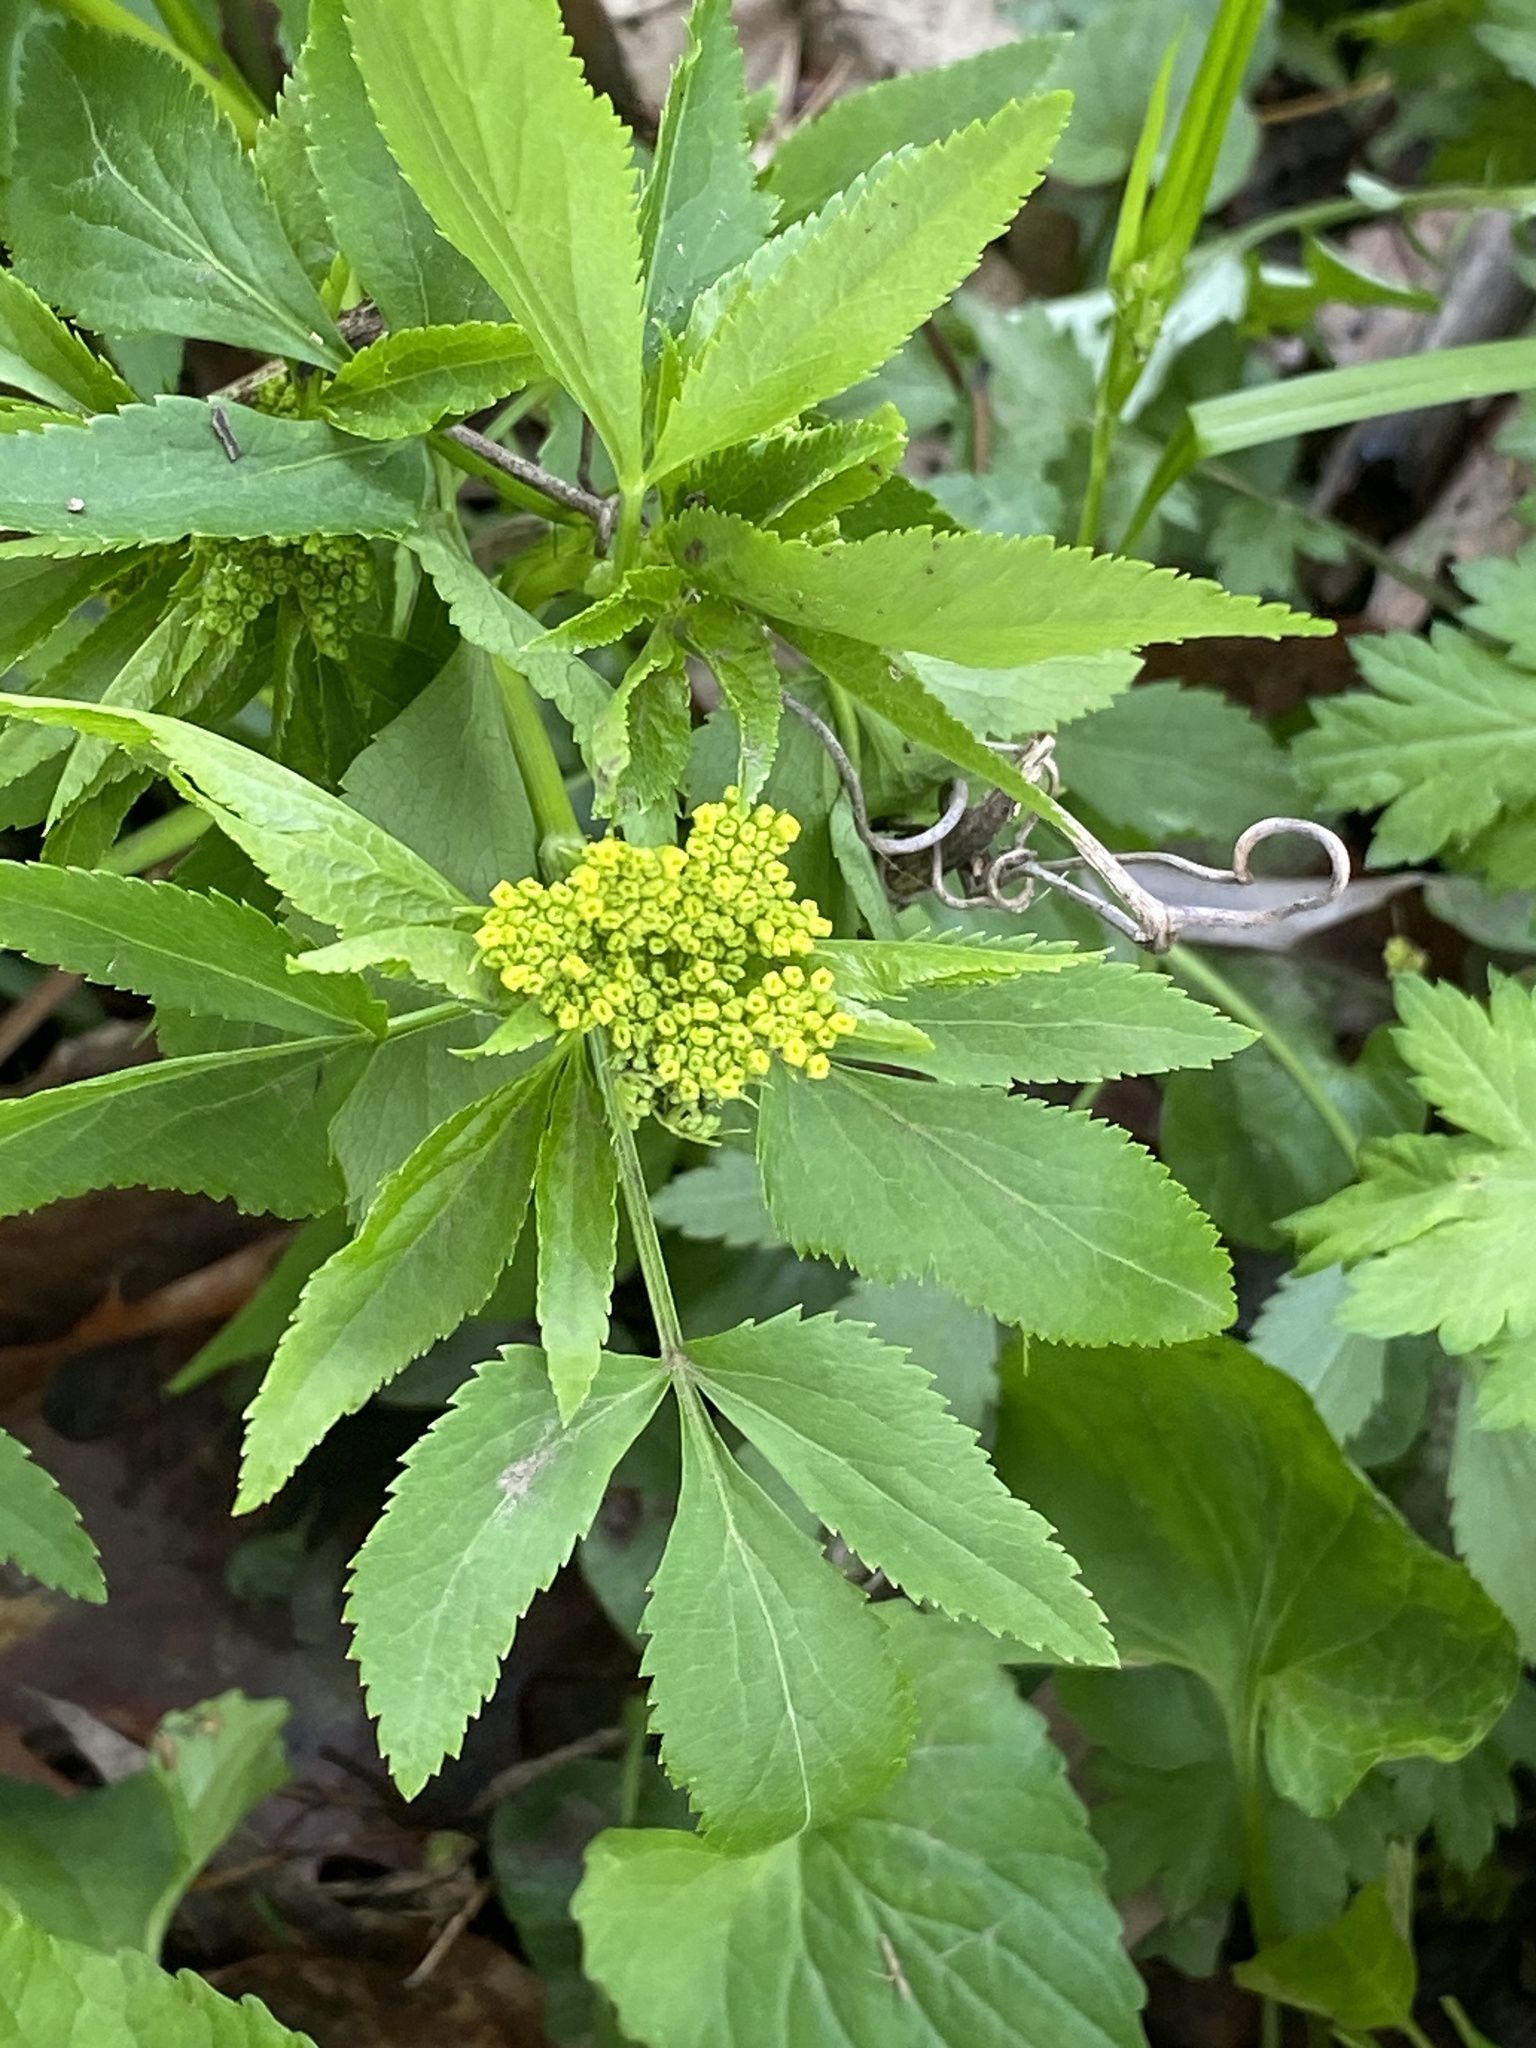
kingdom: Plantae
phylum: Tracheophyta
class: Magnoliopsida
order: Apiales
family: Apiaceae
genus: Zizia
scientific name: Zizia aurea
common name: Golden alexanders
